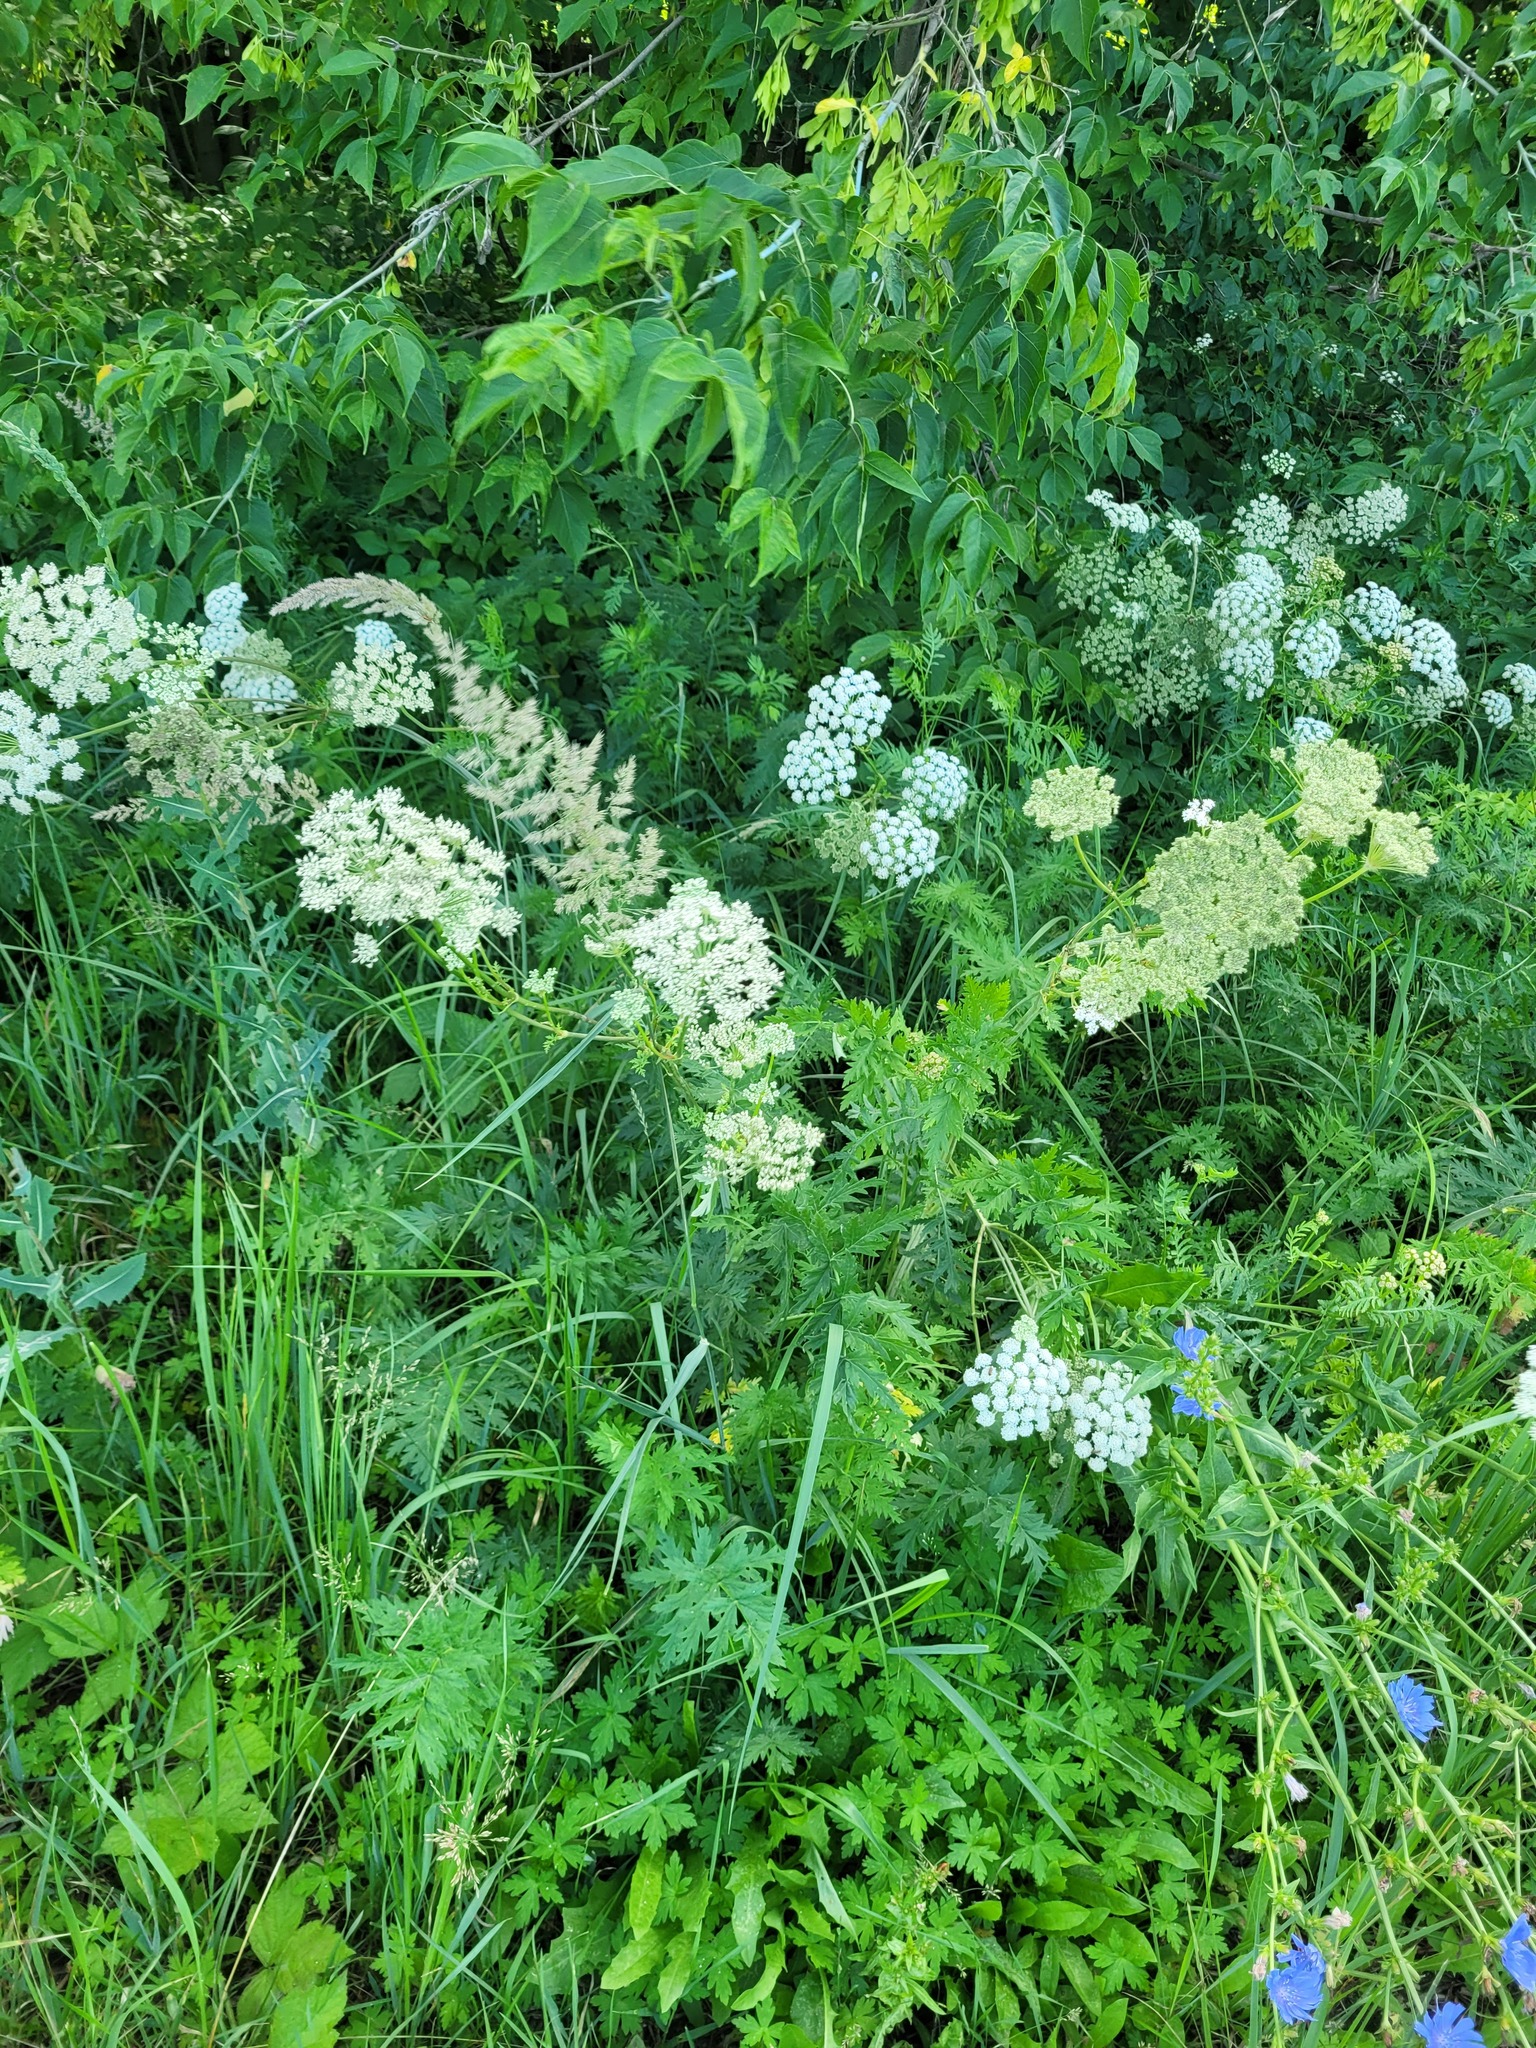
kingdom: Plantae
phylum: Tracheophyta
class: Magnoliopsida
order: Apiales
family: Apiaceae
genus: Seseli
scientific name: Seseli libanotis
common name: Mooncarrot
